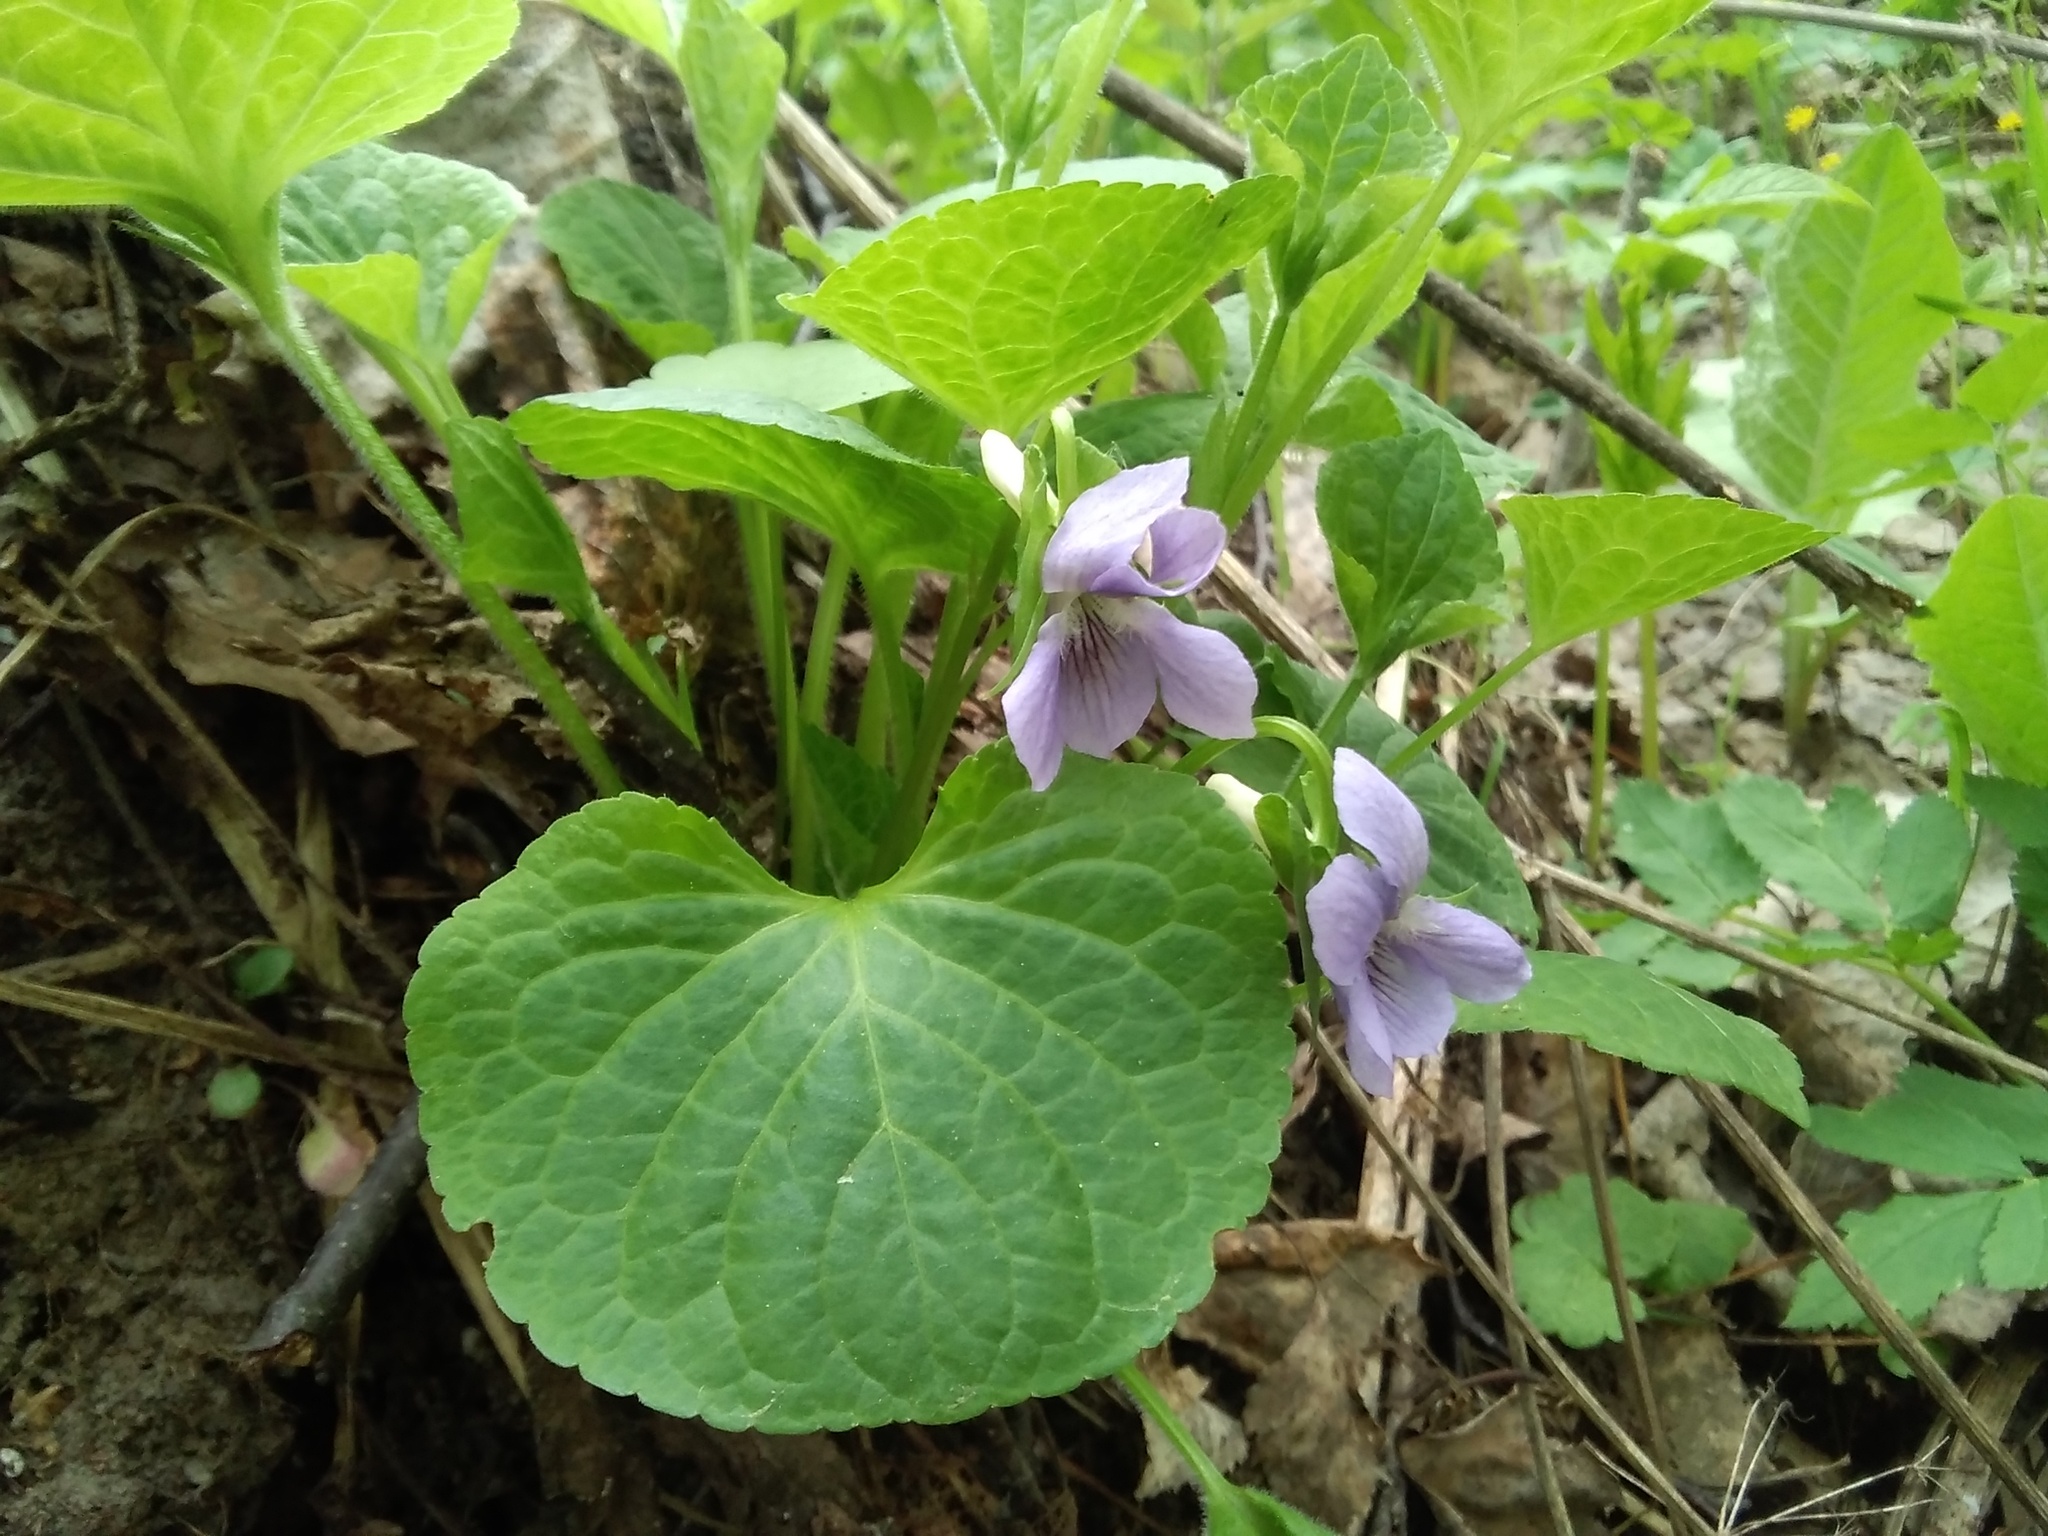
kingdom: Plantae
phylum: Tracheophyta
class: Magnoliopsida
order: Malpighiales
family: Violaceae
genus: Viola
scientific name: Viola mirabilis
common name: Wonder violet
